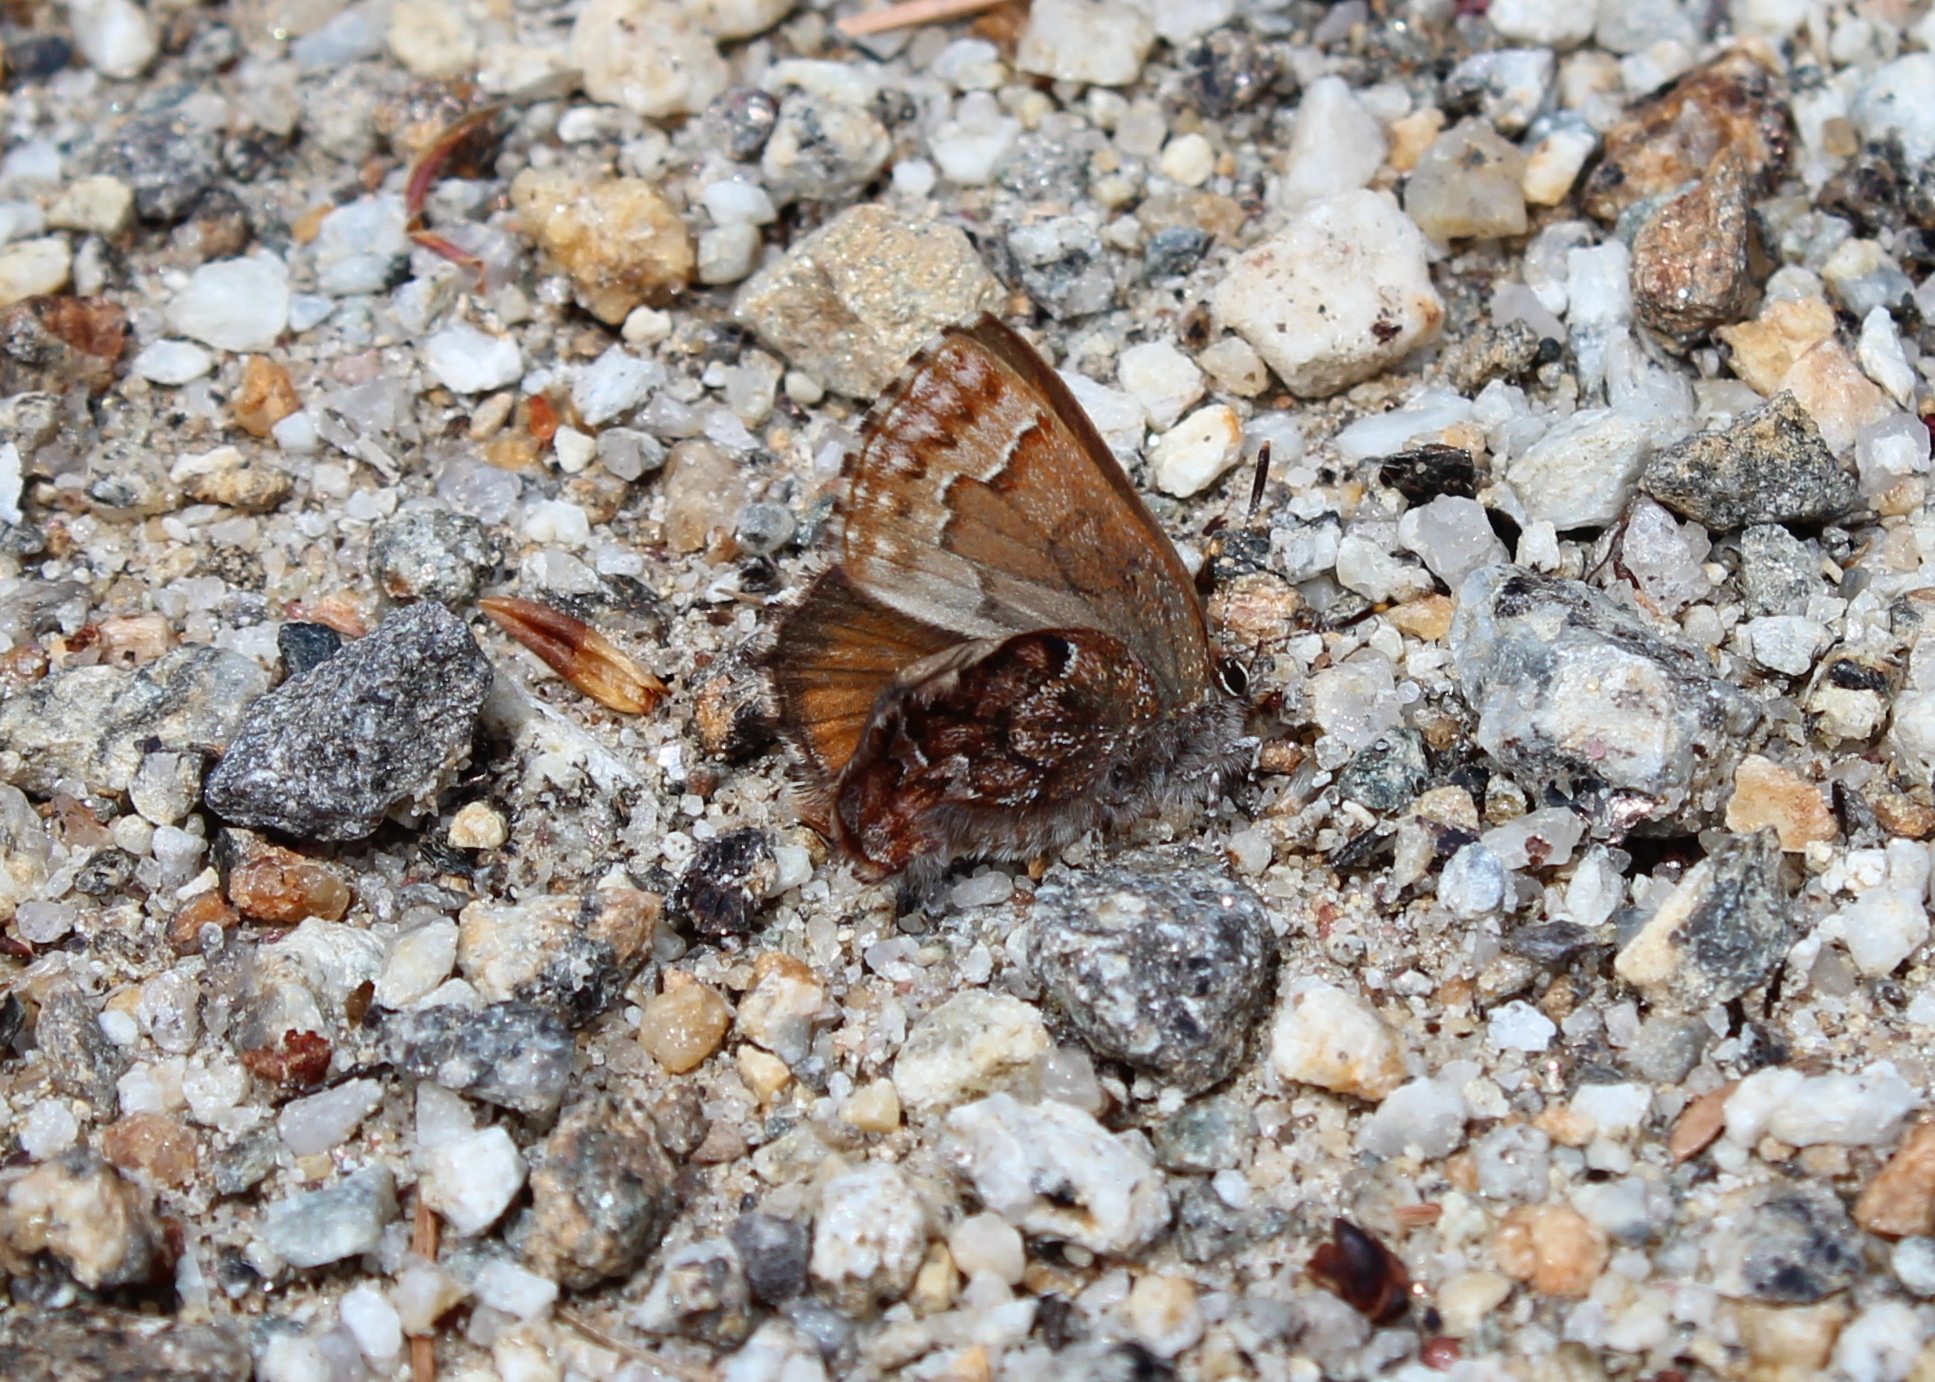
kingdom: Animalia
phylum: Arthropoda
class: Insecta
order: Lepidoptera
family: Lycaenidae
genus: Incisalia
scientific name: Incisalia niphon
